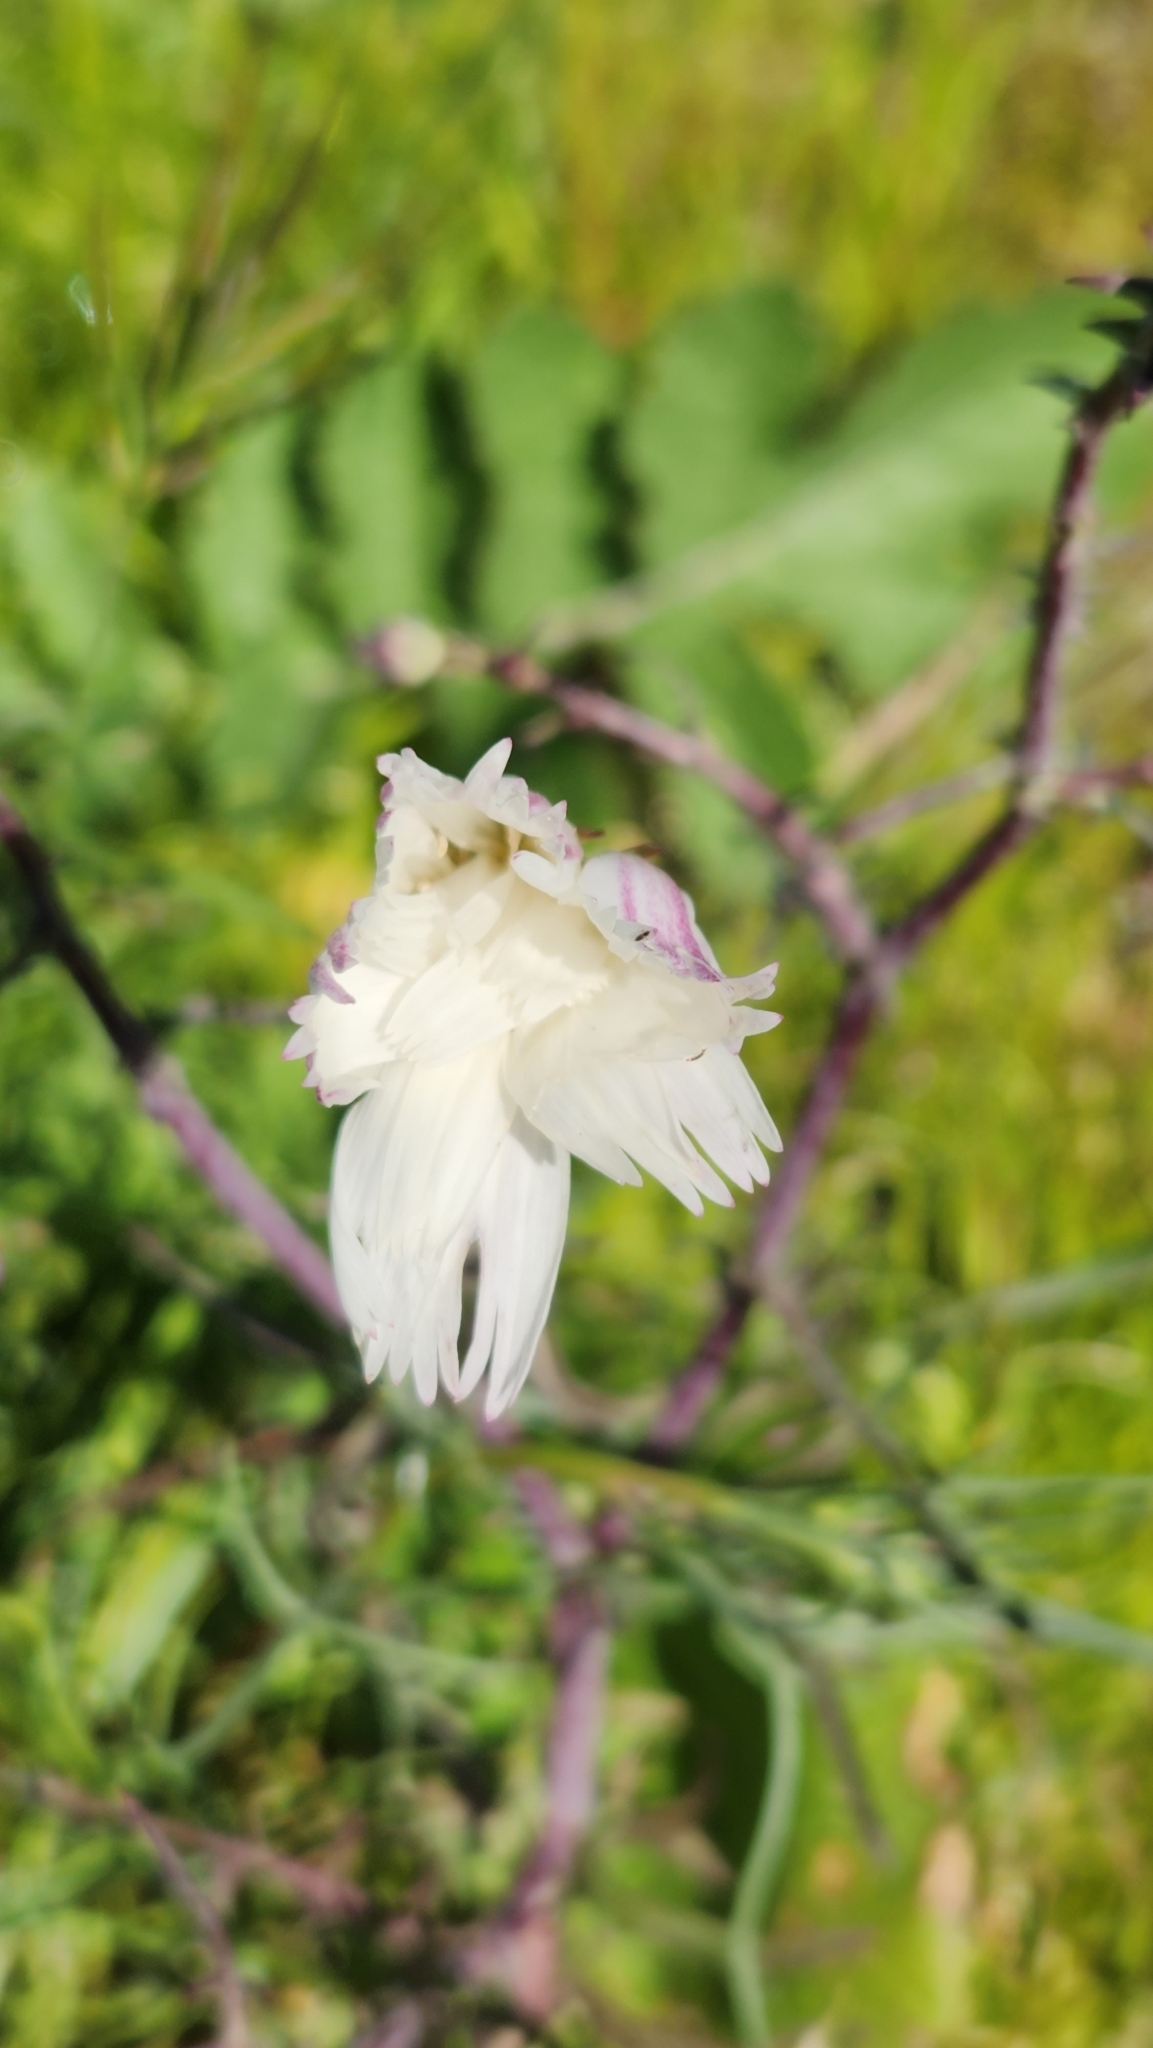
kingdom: Plantae
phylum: Tracheophyta
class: Magnoliopsida
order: Asterales
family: Asteraceae
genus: Rafinesquia
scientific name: Rafinesquia neomexicana
